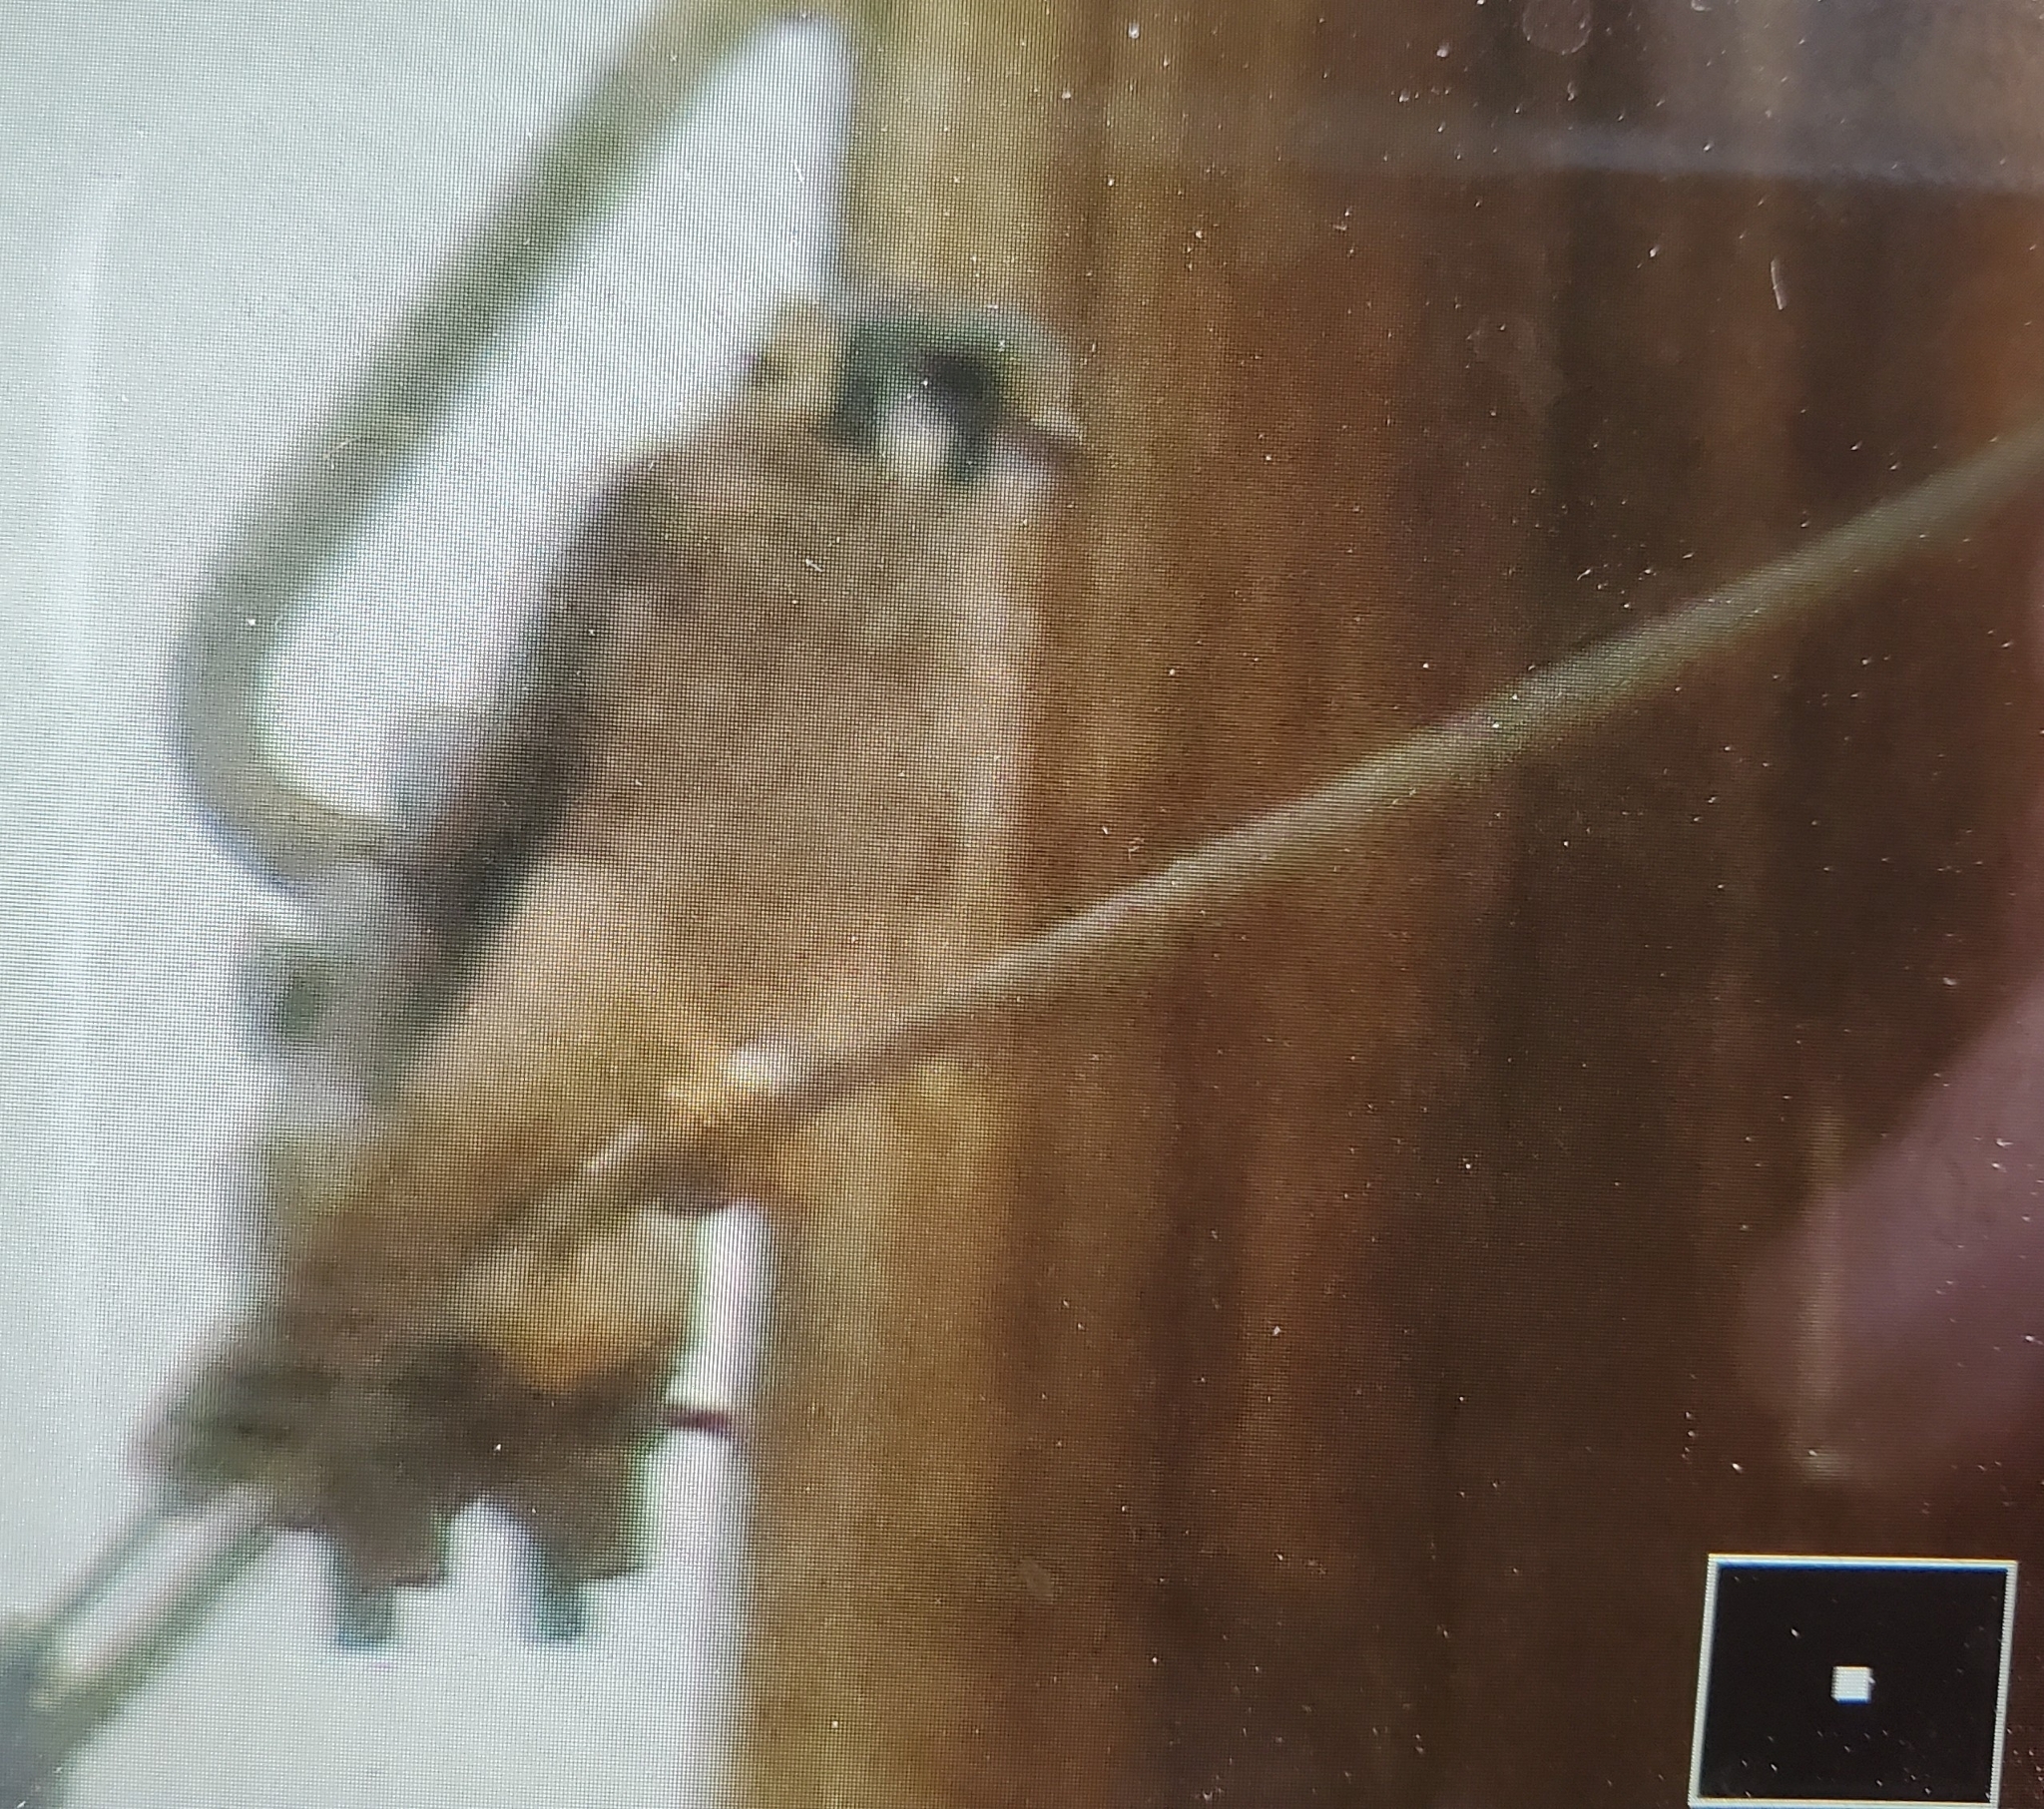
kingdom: Animalia
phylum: Chordata
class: Aves
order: Falconiformes
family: Falconidae
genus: Falco
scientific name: Falco sparverius
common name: American kestrel
